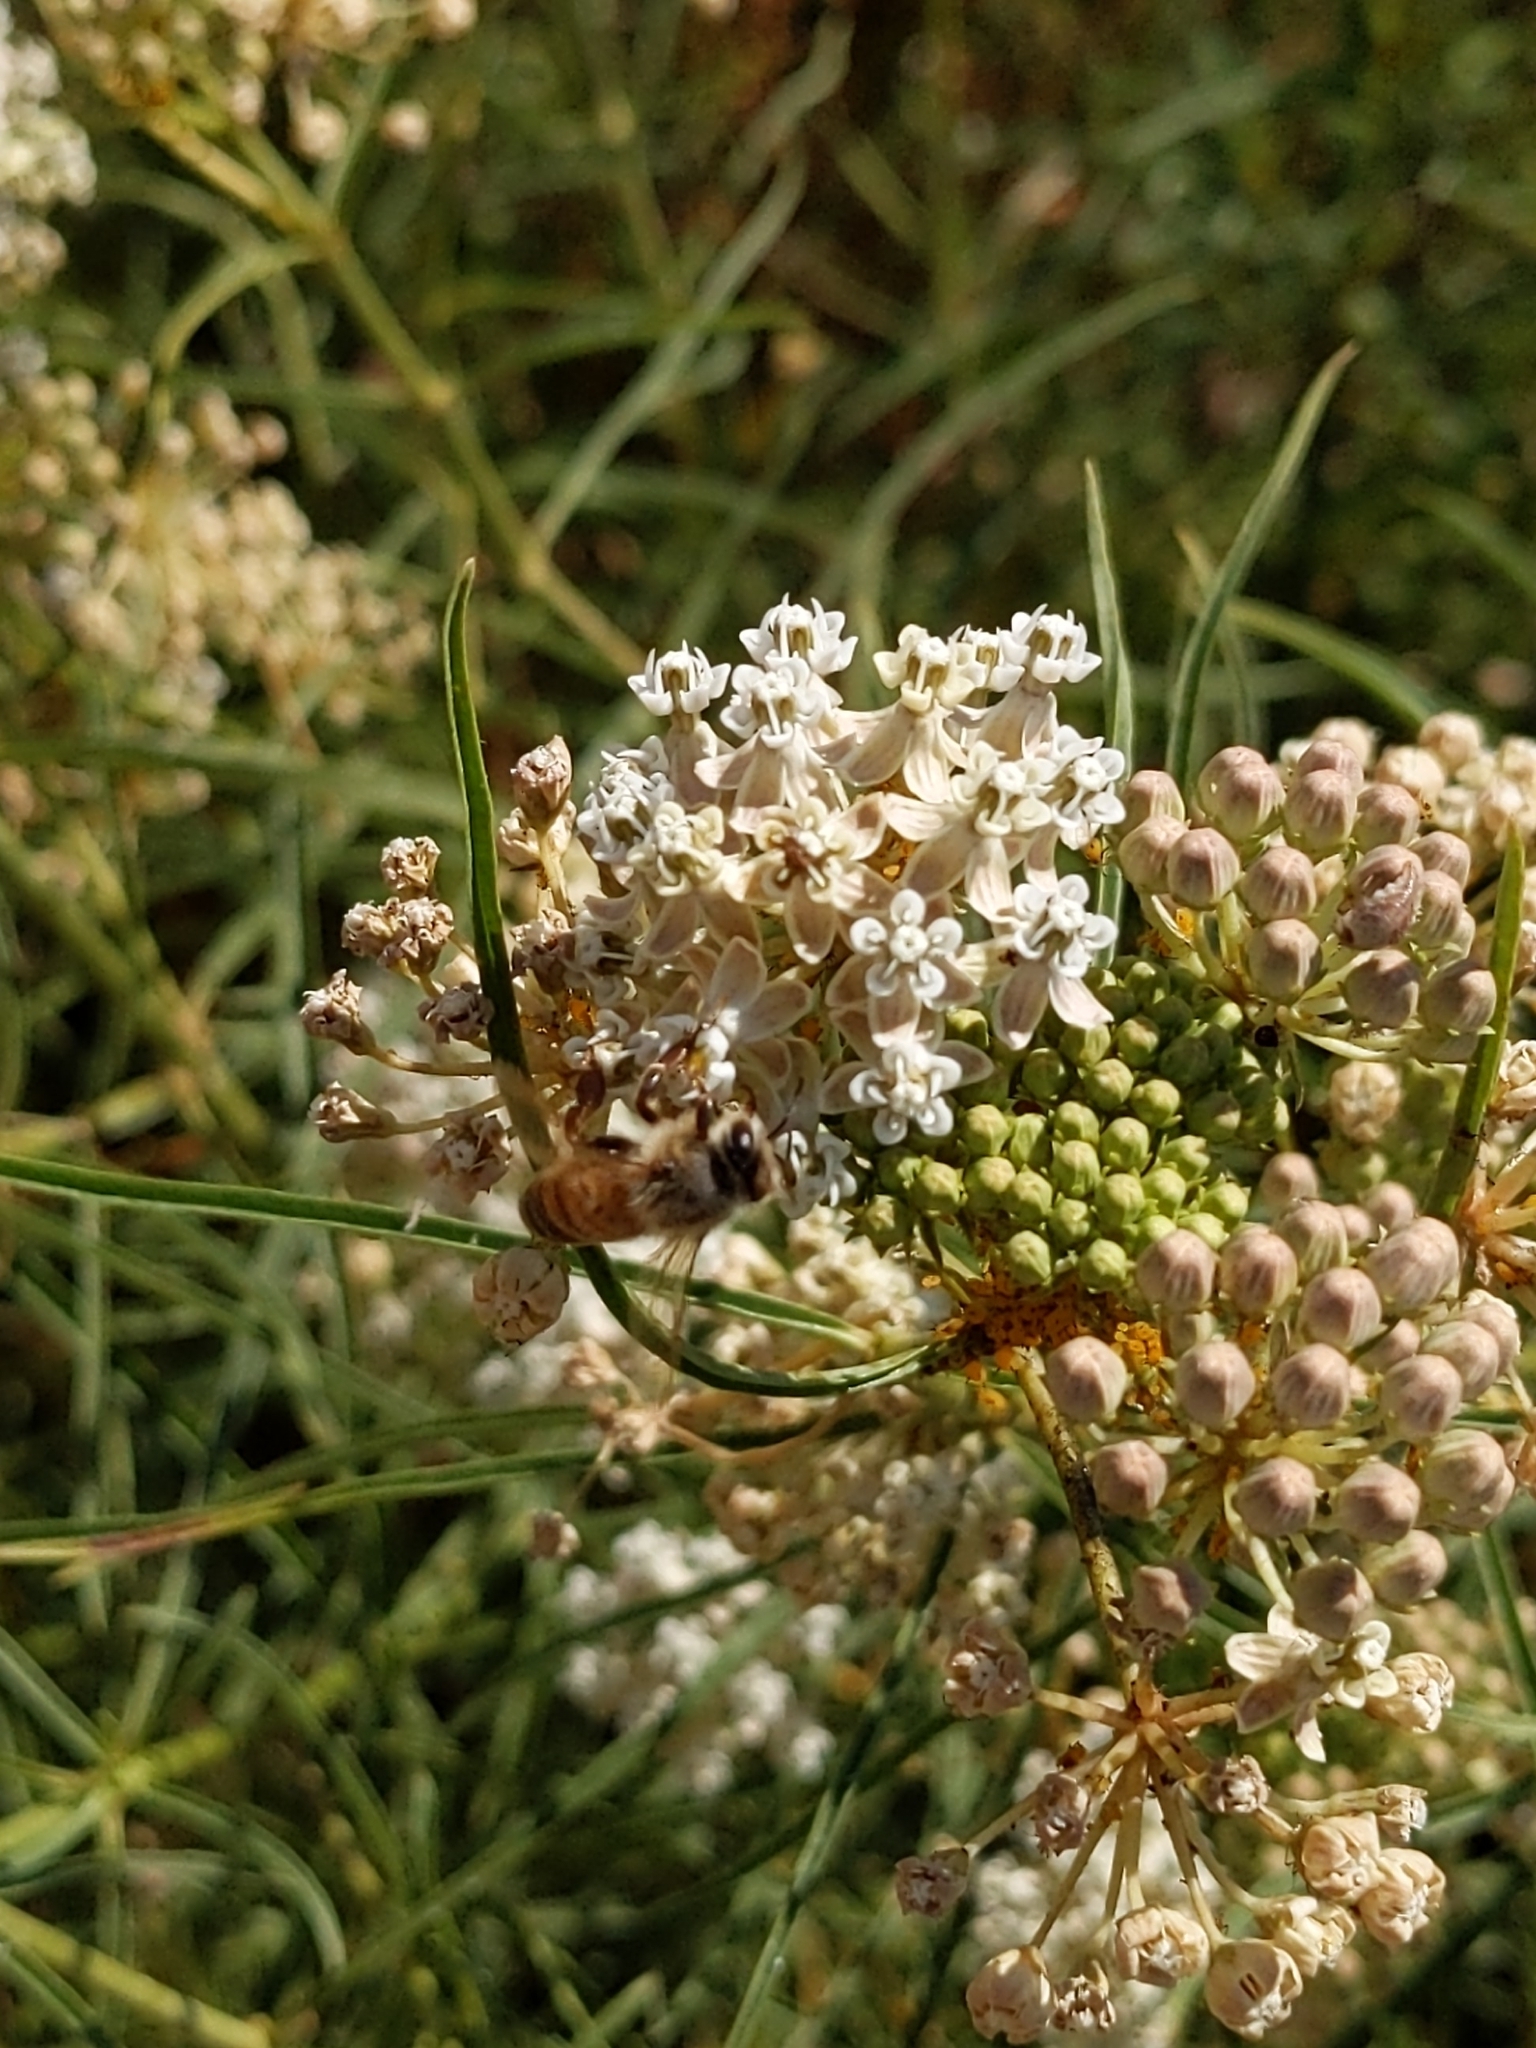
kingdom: Animalia
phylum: Arthropoda
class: Insecta
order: Hymenoptera
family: Apidae
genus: Apis
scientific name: Apis mellifera
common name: Honey bee
